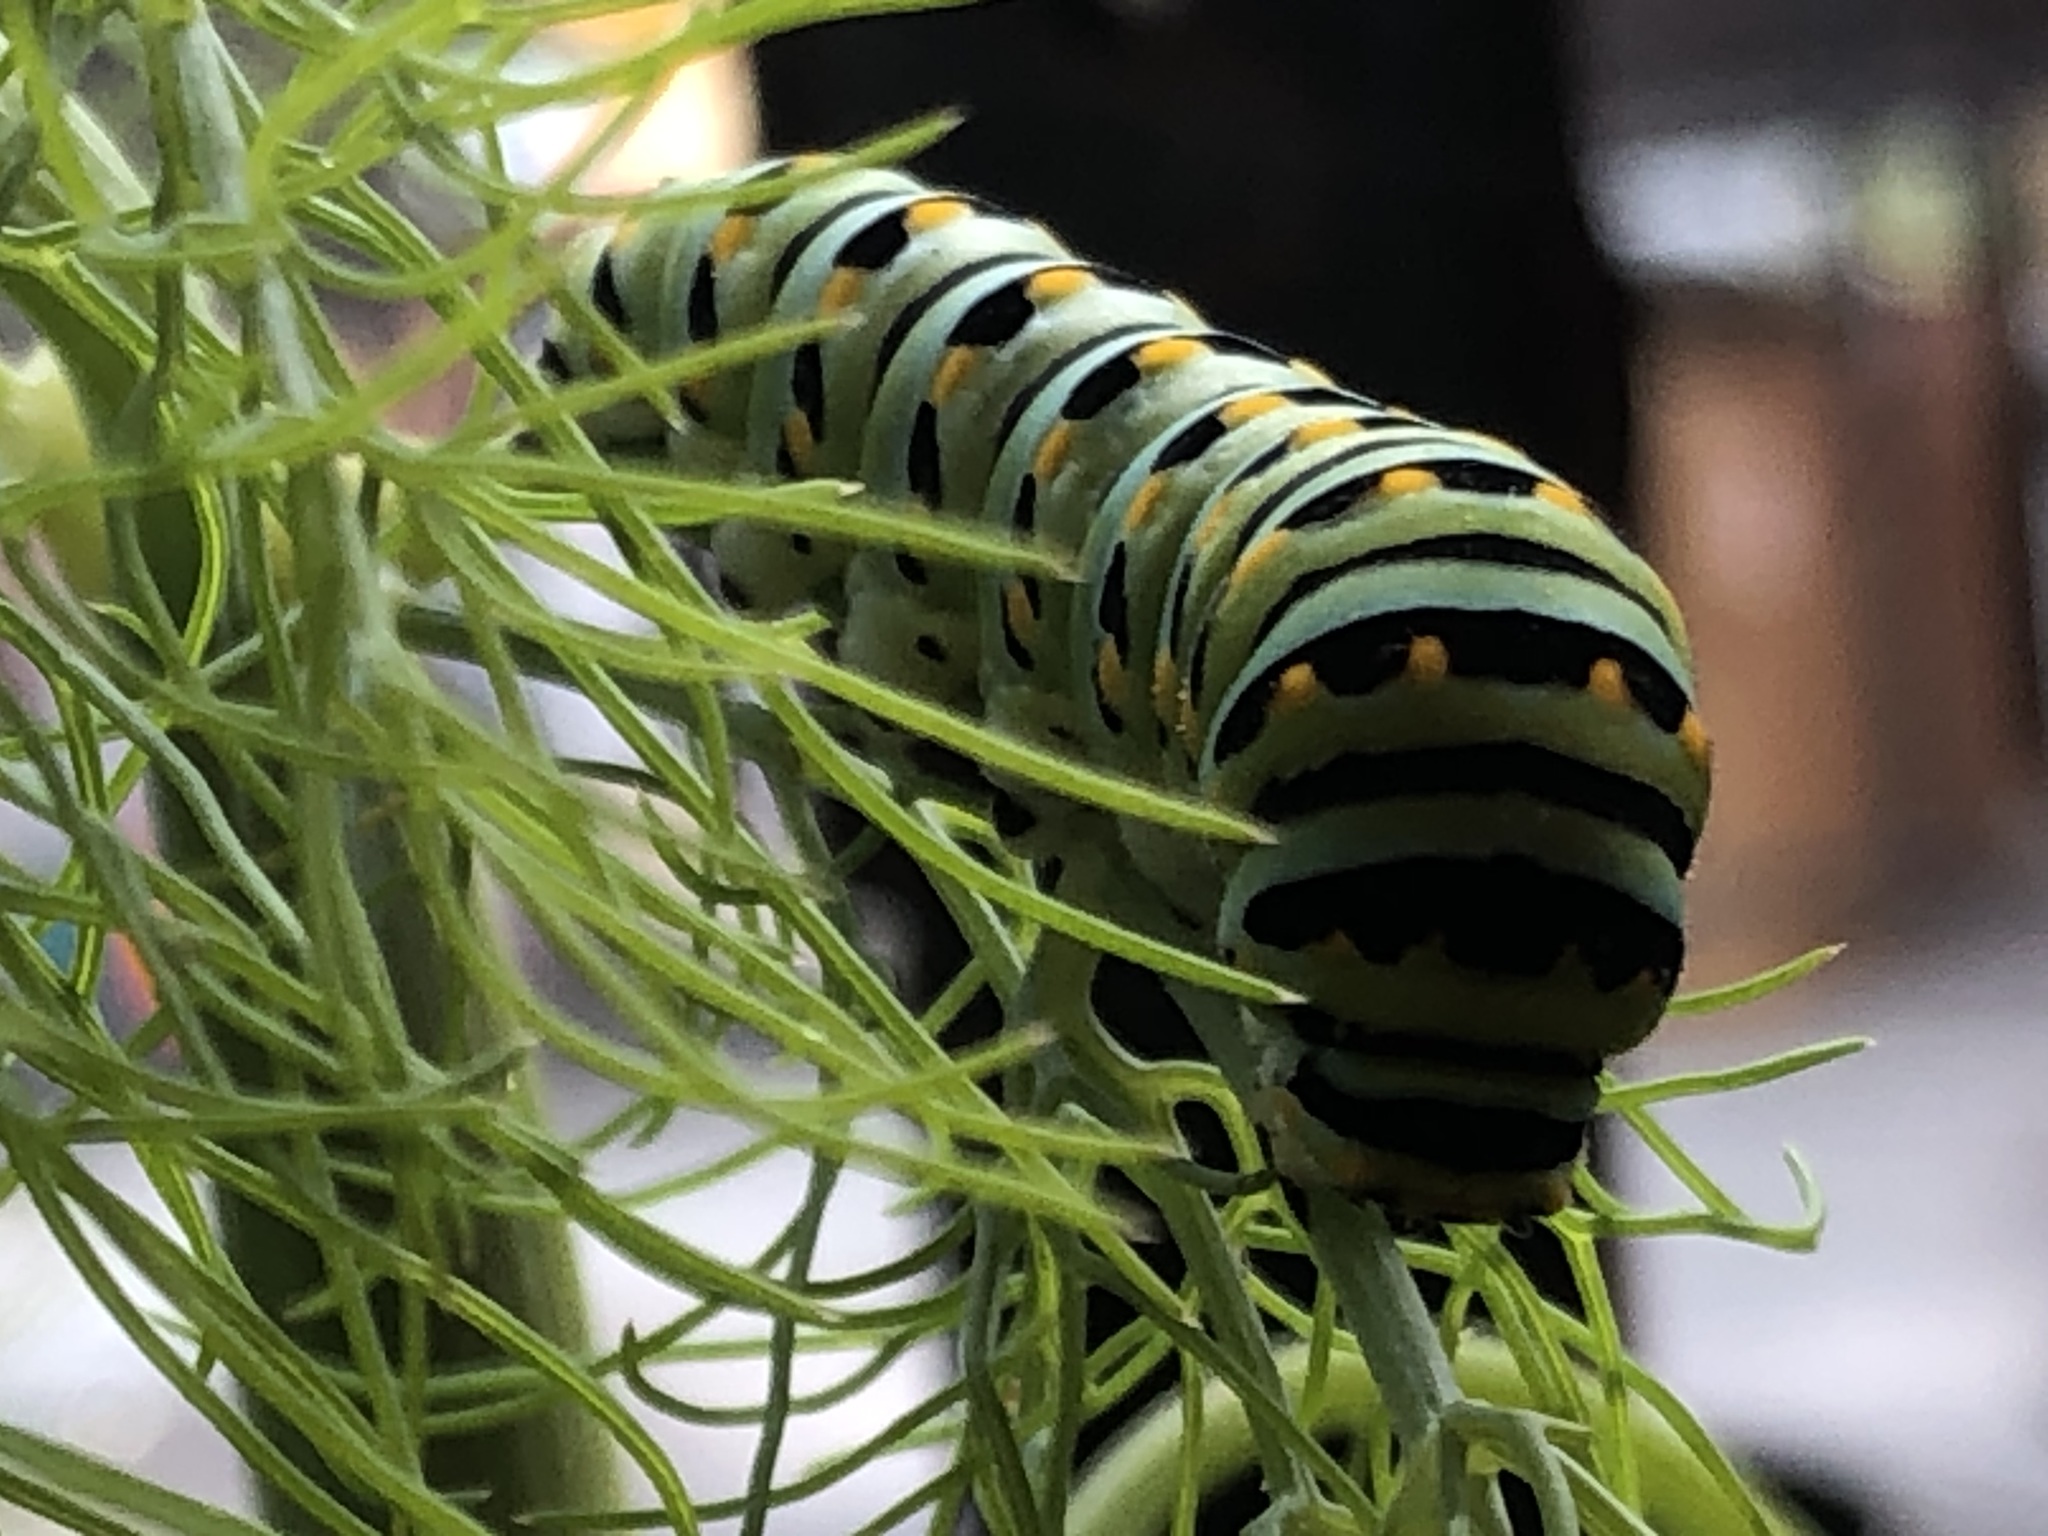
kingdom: Animalia
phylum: Arthropoda
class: Insecta
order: Lepidoptera
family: Papilionidae
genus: Papilio
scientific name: Papilio zelicaon
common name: Anise swallowtail
